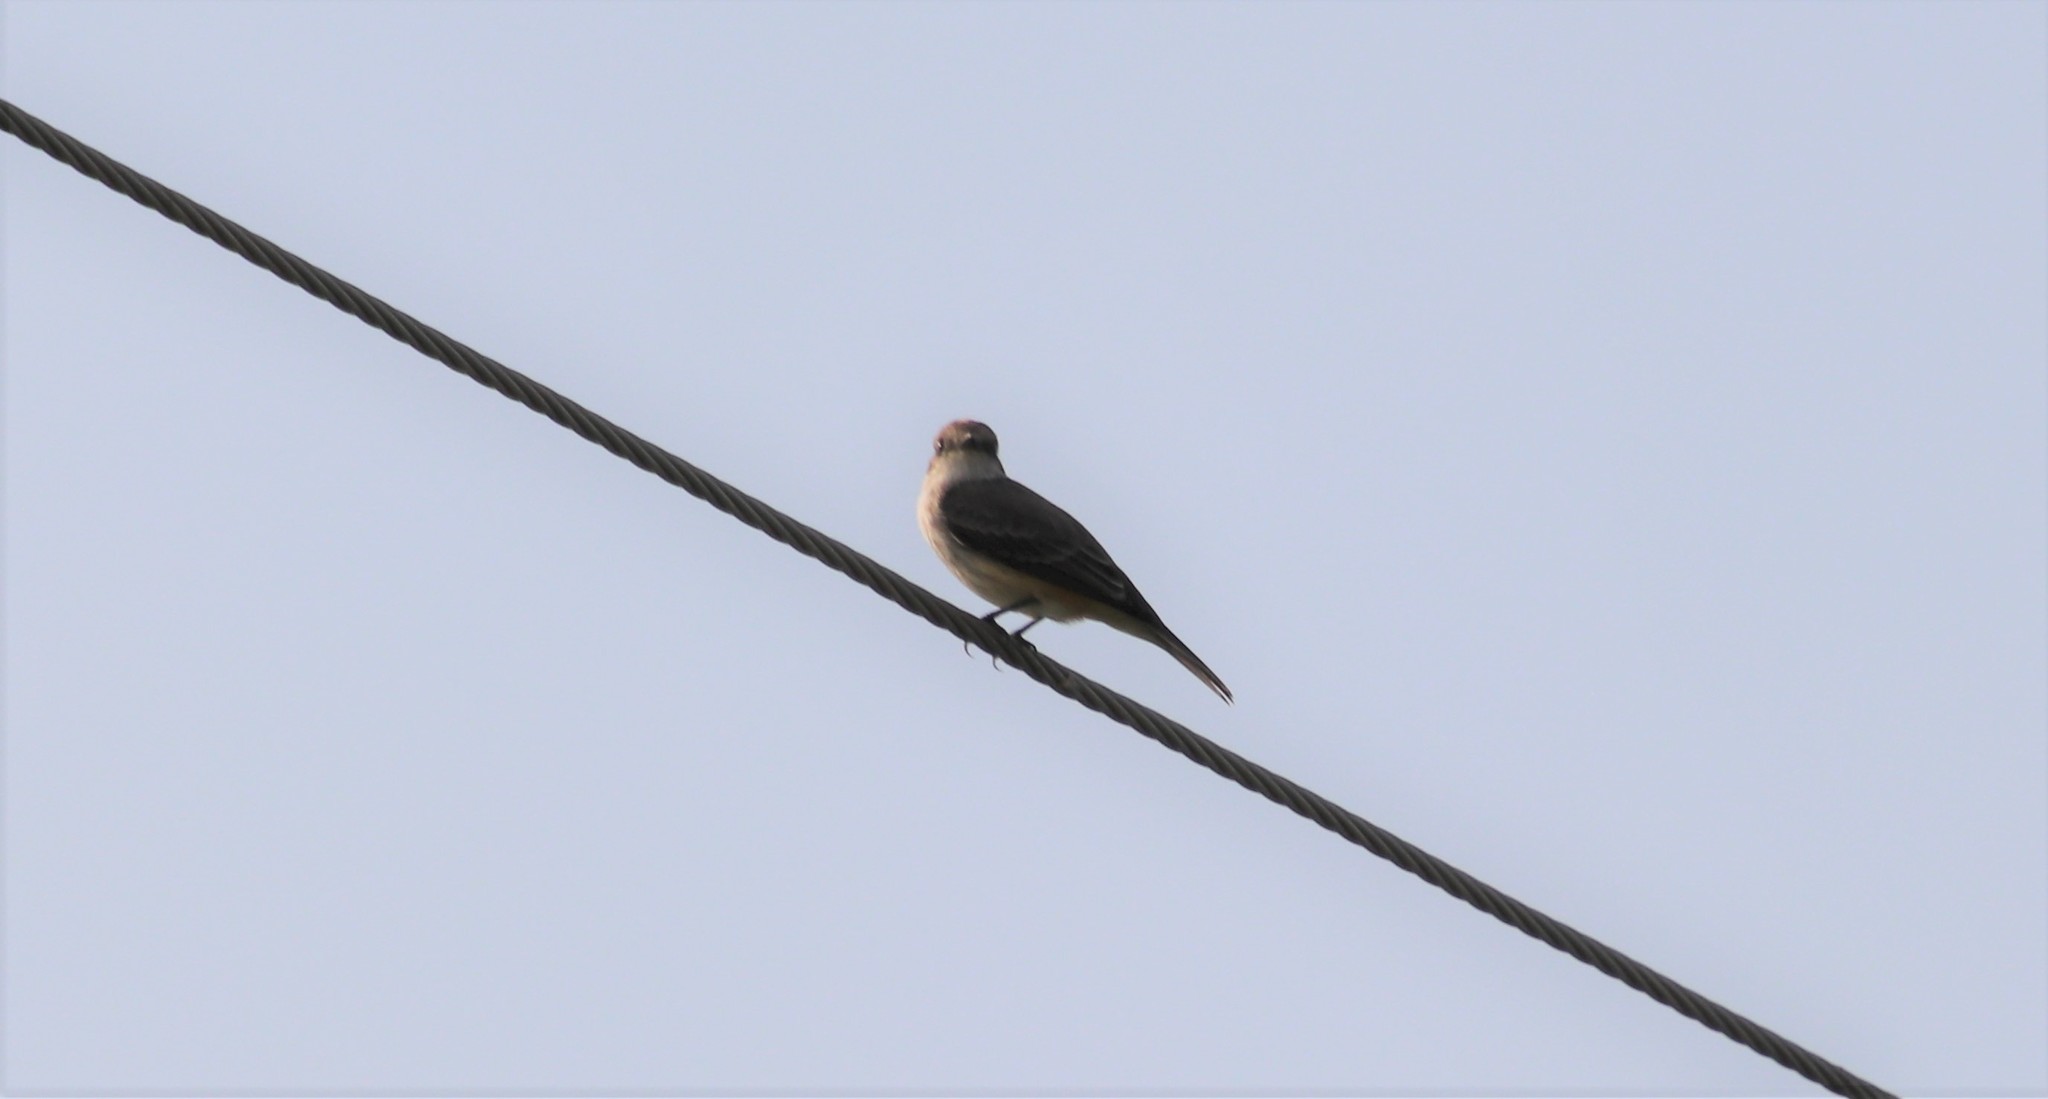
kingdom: Animalia
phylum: Chordata
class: Aves
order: Passeriformes
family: Tyrannidae
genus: Pyrocephalus
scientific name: Pyrocephalus rubinus
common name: Vermilion flycatcher
